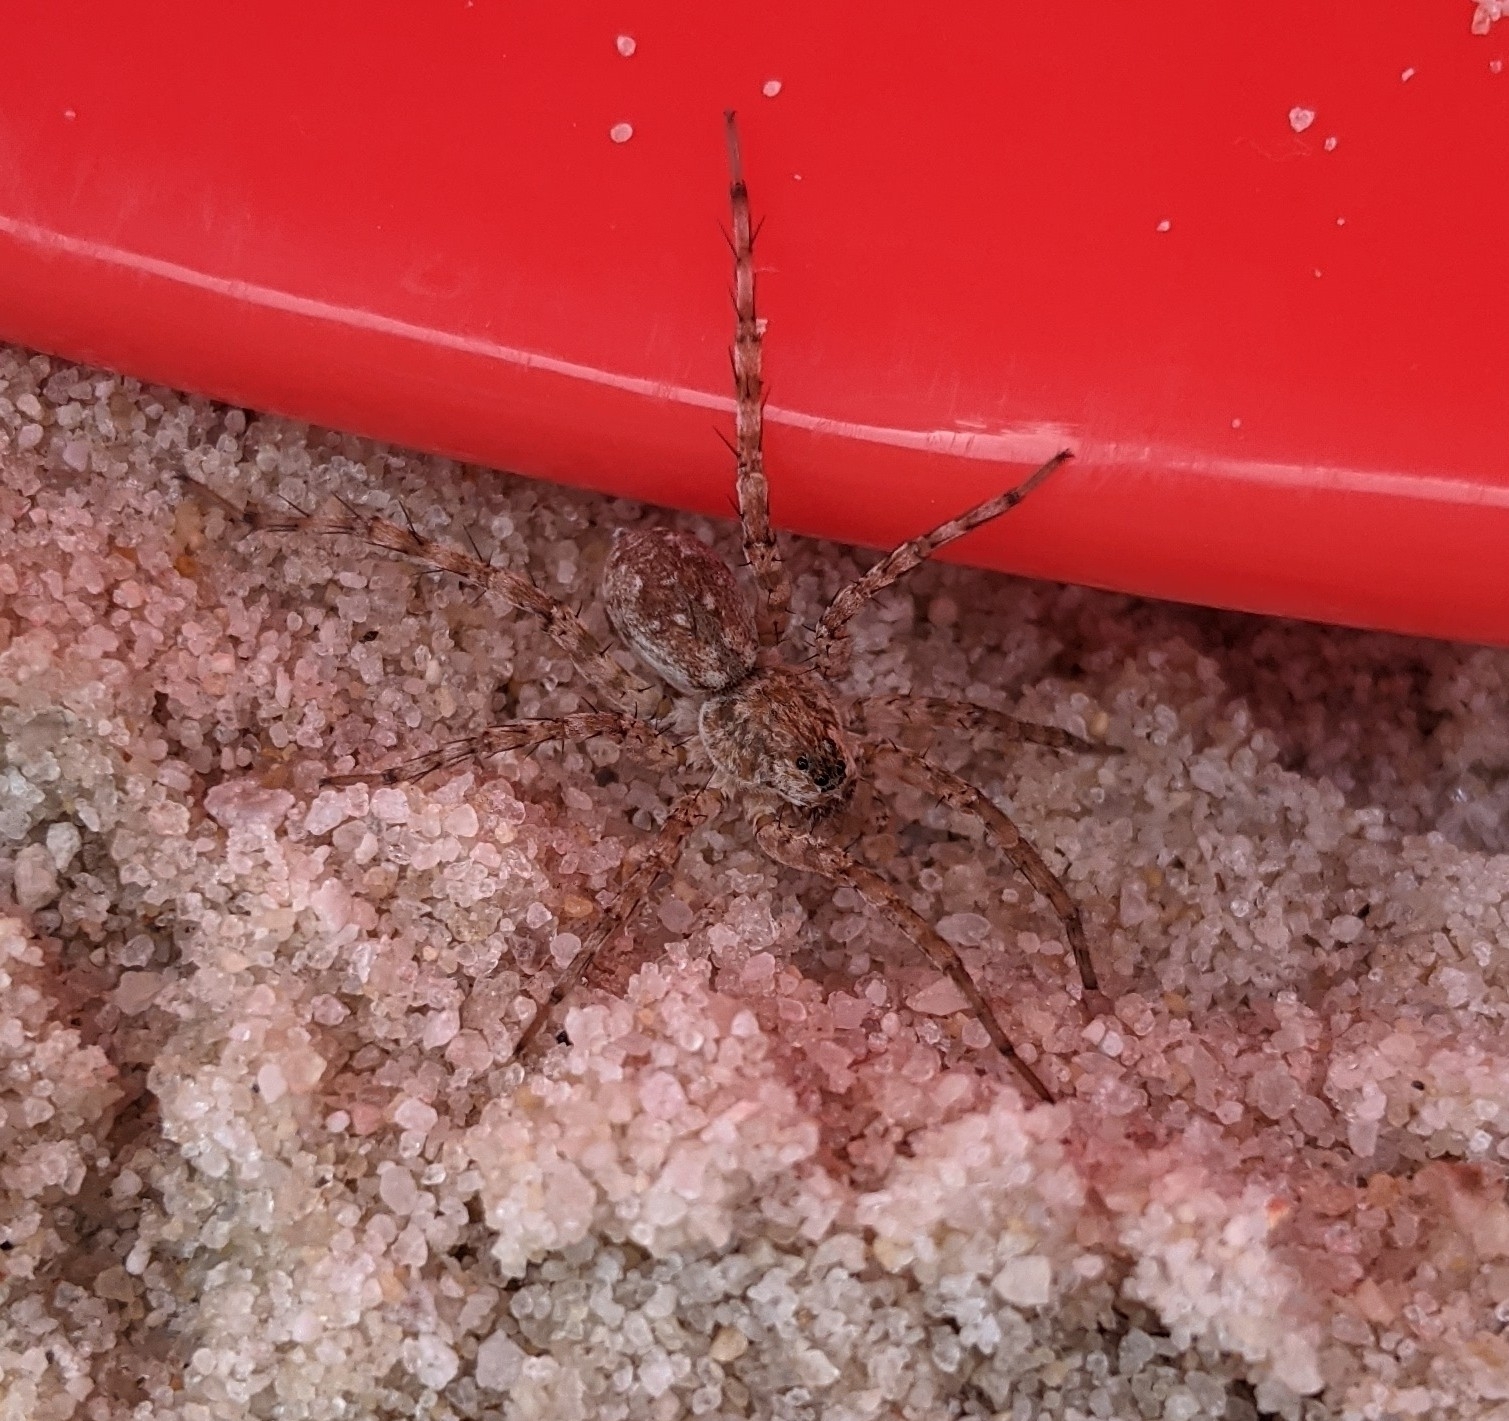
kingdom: Animalia
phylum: Arthropoda
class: Arachnida
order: Araneae
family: Lycosidae
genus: Arctosa
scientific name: Arctosa littoralis
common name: Wolf spiders
